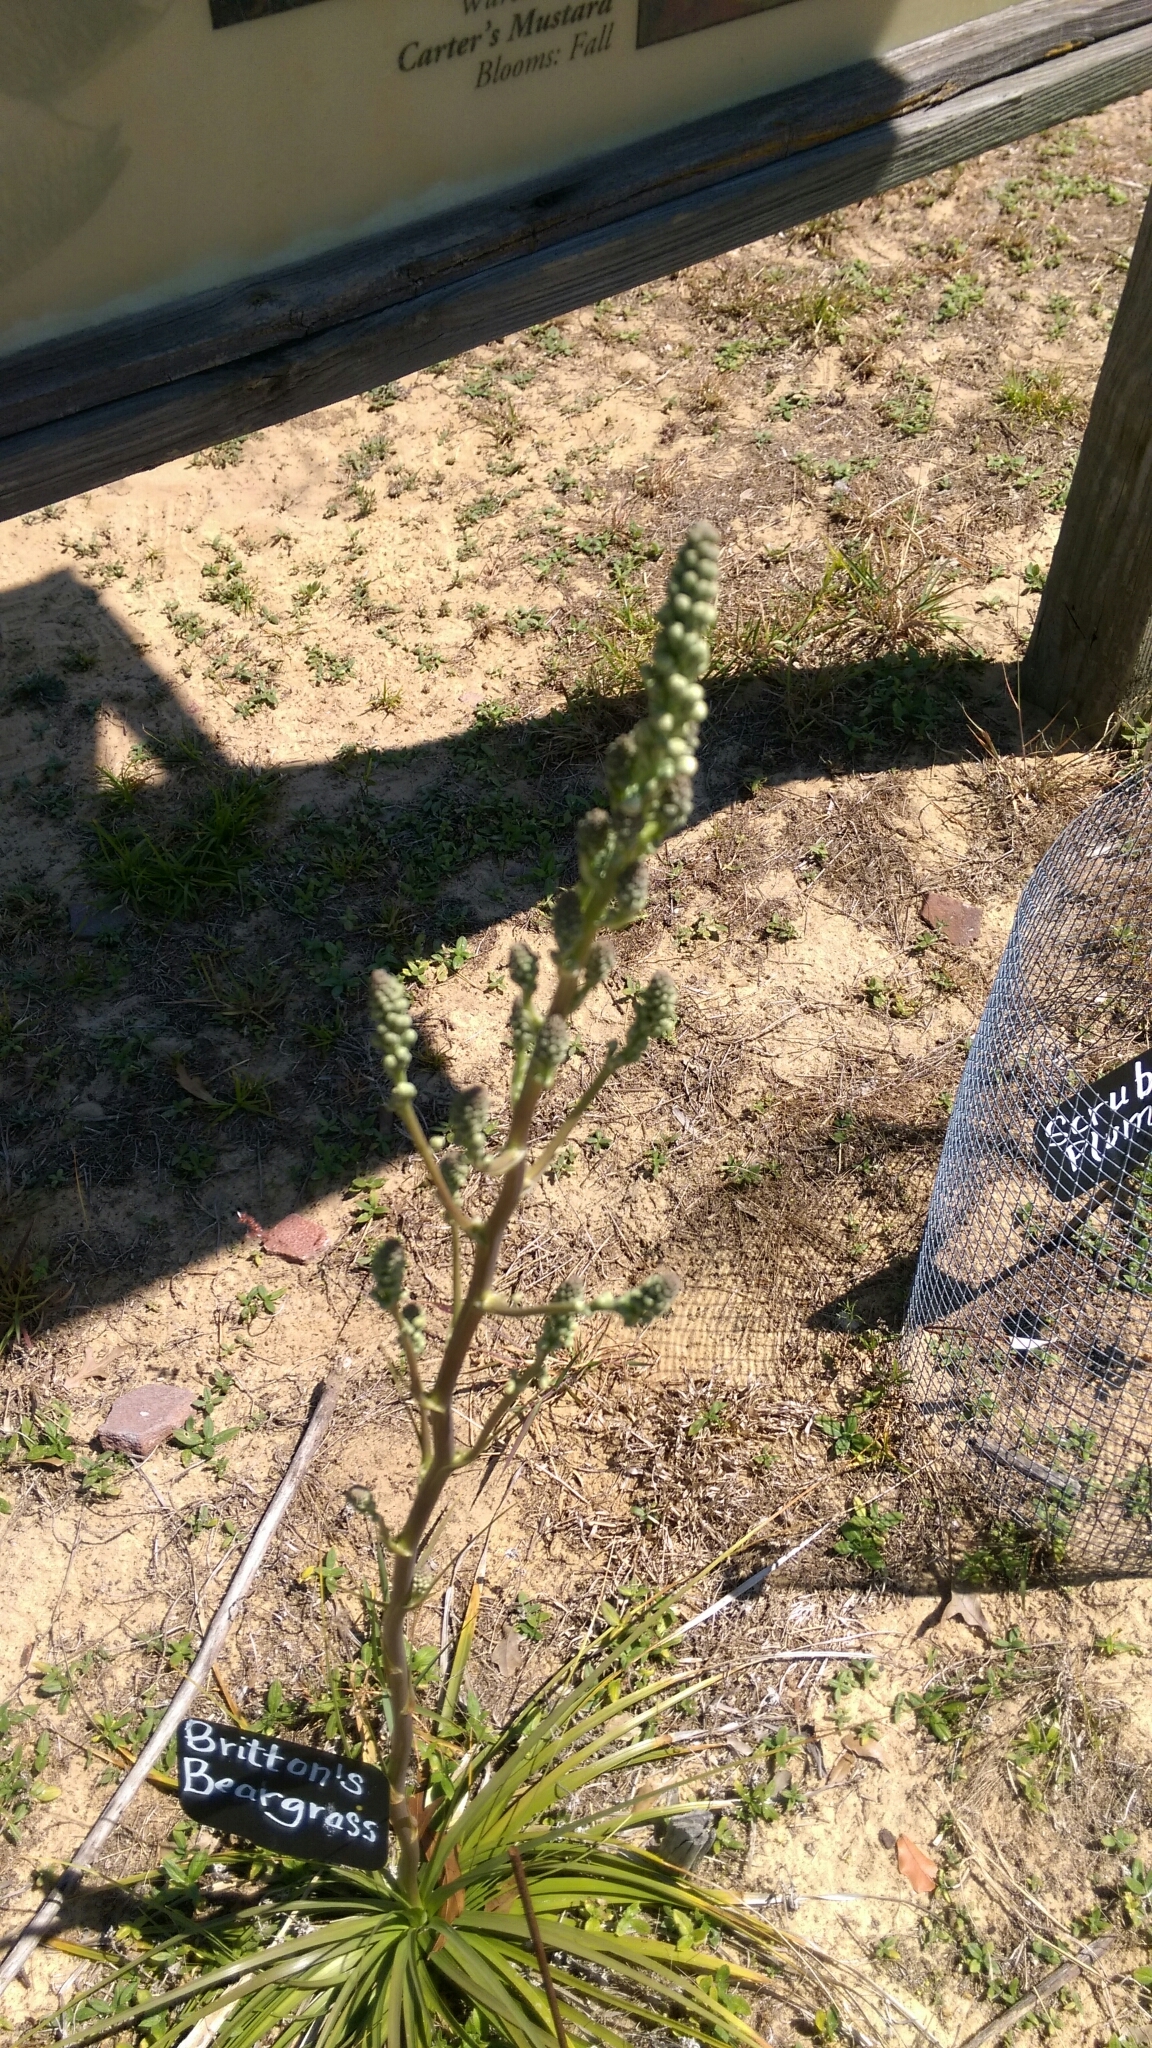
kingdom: Plantae
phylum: Tracheophyta
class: Liliopsida
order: Asparagales
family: Asparagaceae
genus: Nolina
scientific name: Nolina brittoniana
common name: Britton's bear-grass
